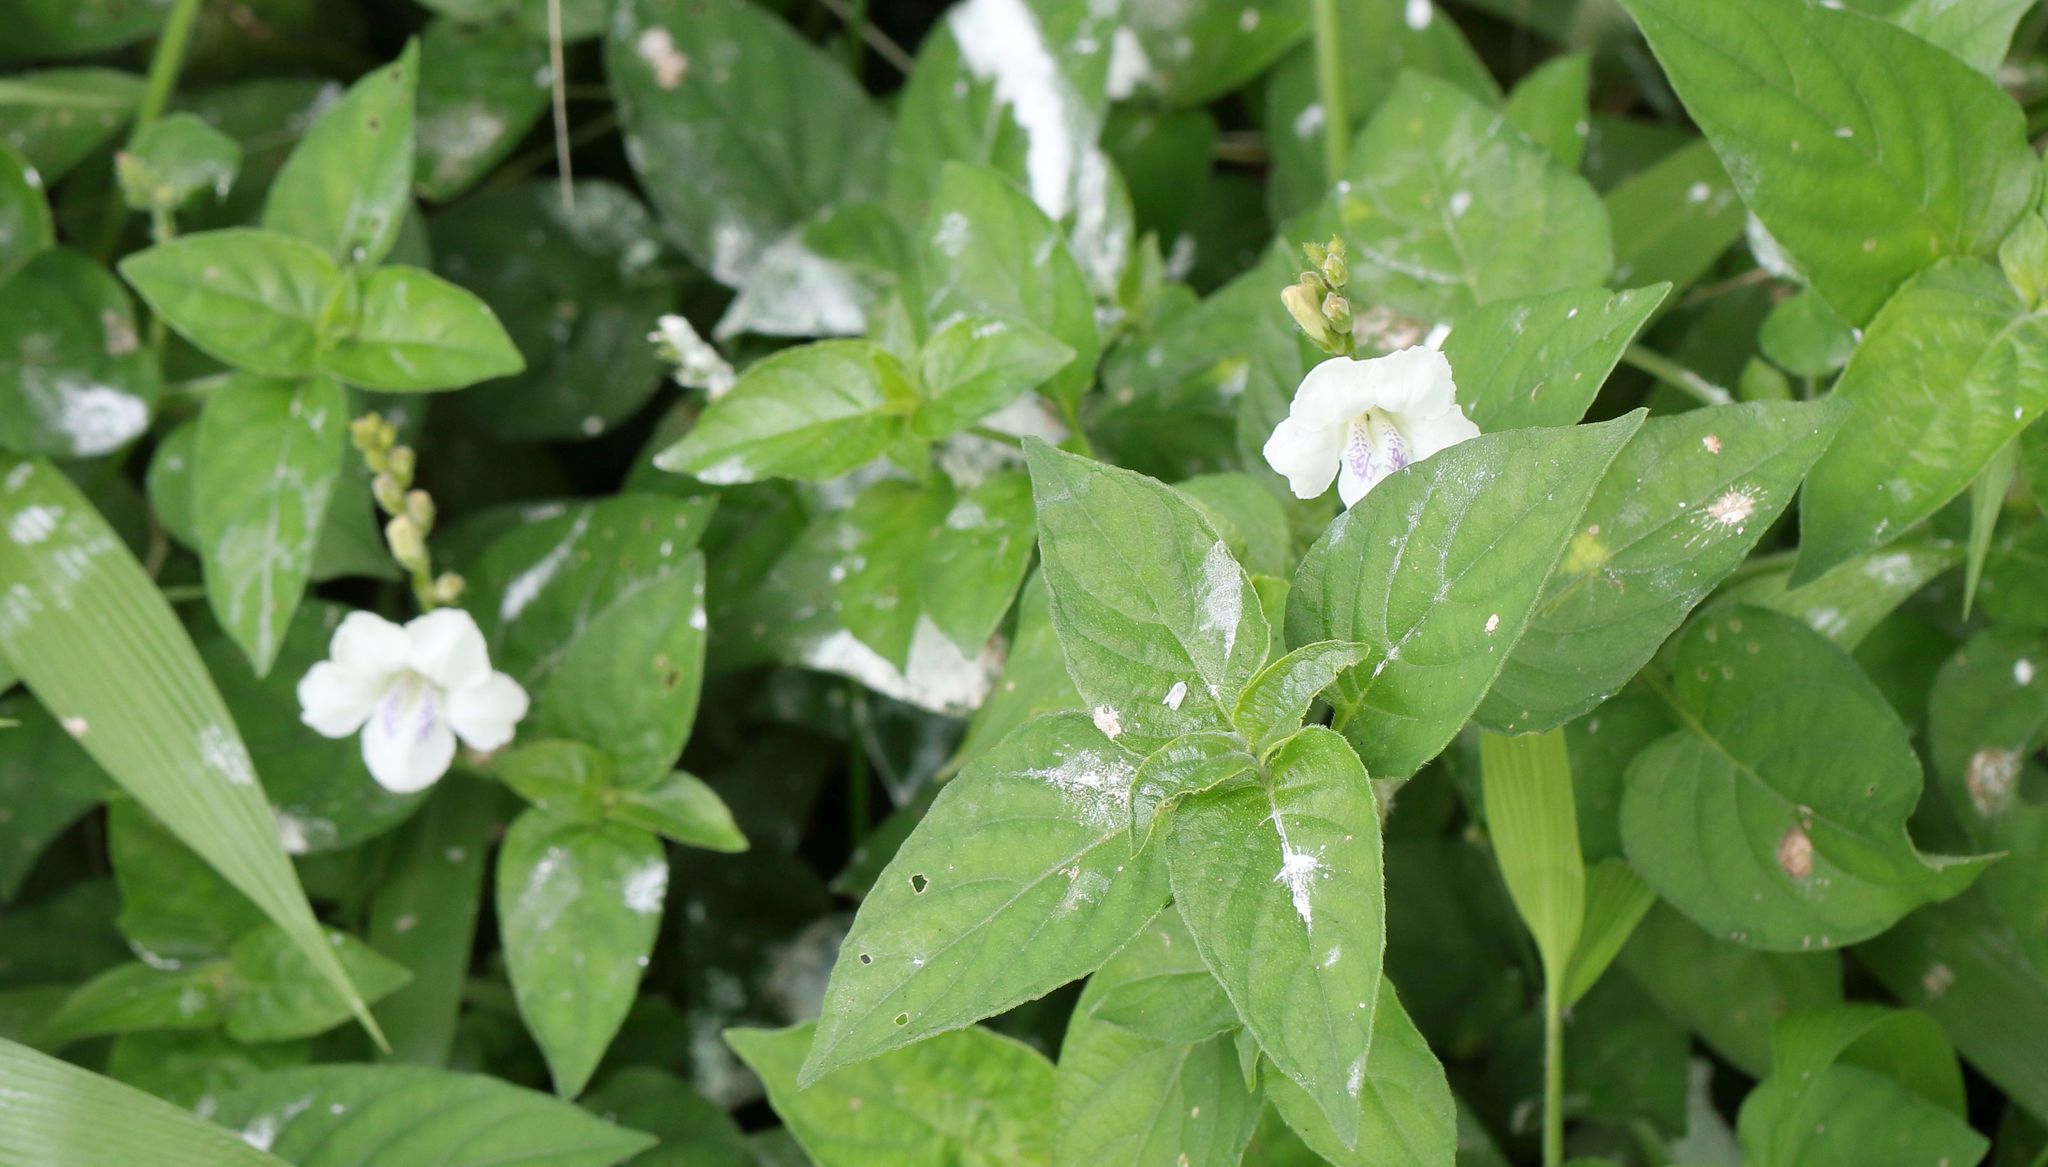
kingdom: Plantae
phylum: Tracheophyta
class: Magnoliopsida
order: Lamiales
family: Acanthaceae
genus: Asystasia
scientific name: Asystasia intrusa
